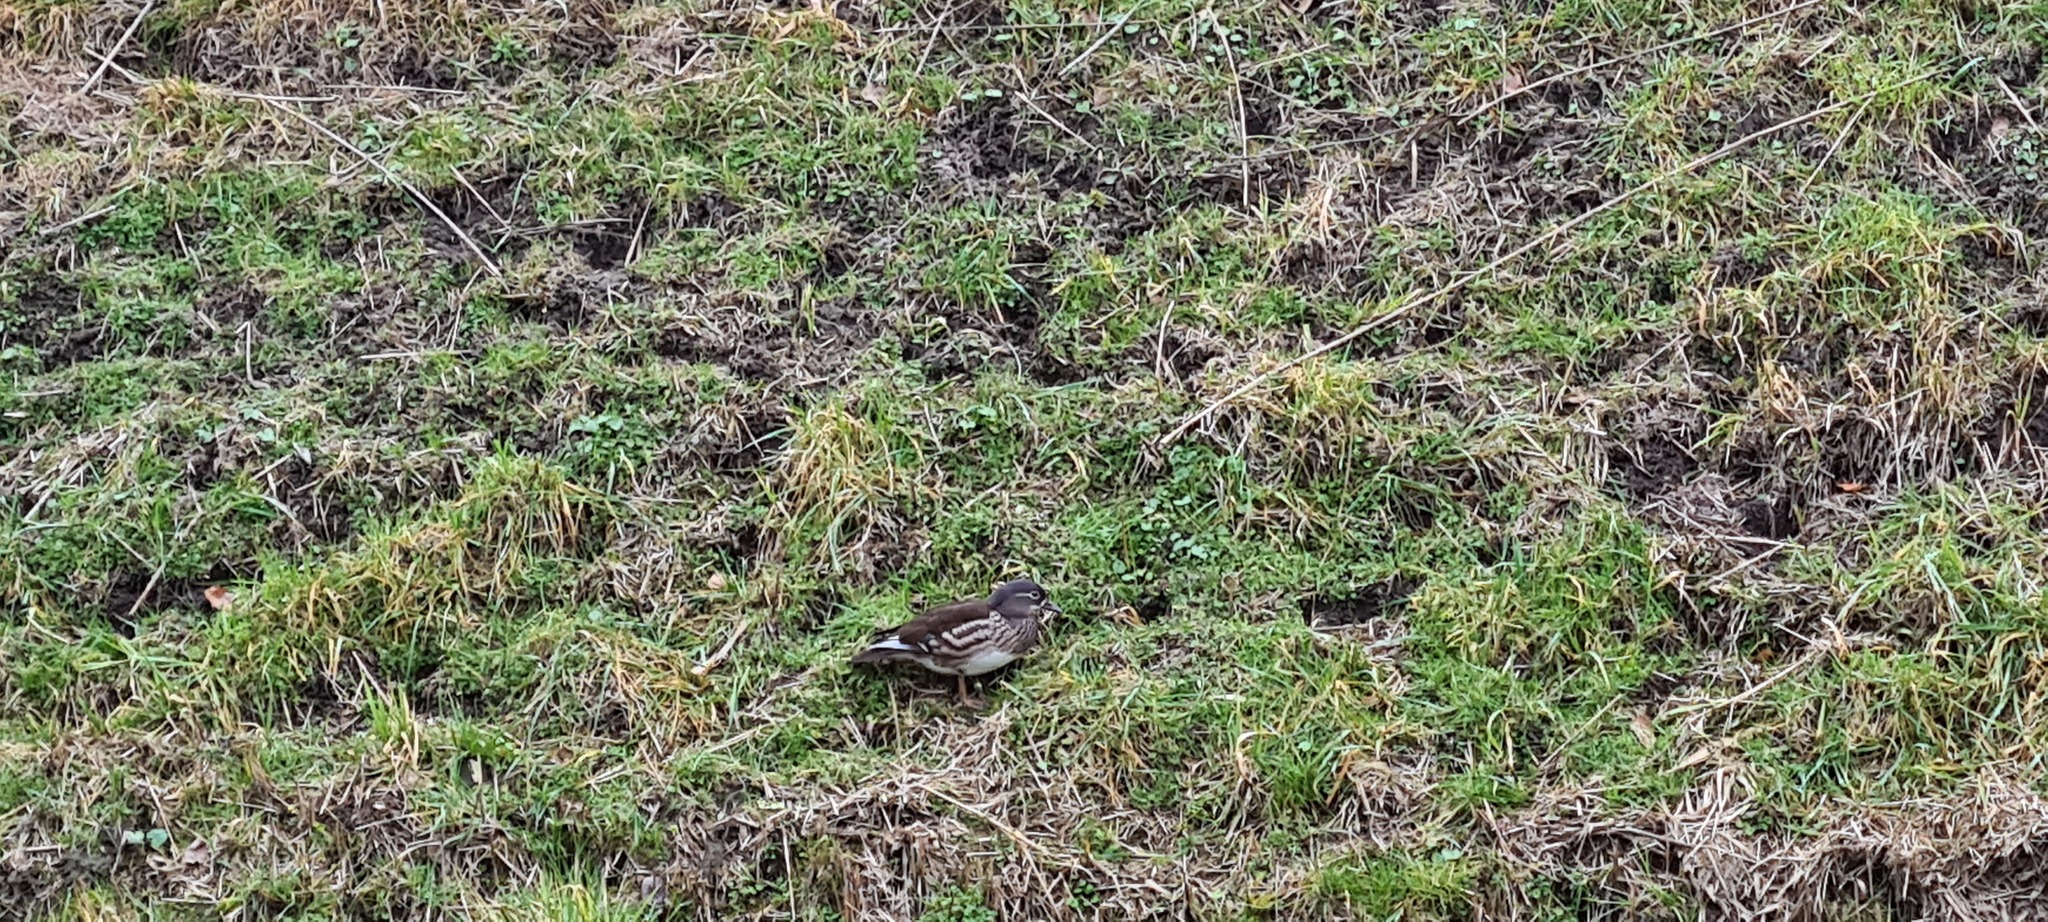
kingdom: Animalia
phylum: Chordata
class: Aves
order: Anseriformes
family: Anatidae
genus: Aix
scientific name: Aix galericulata
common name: Mandarin duck
